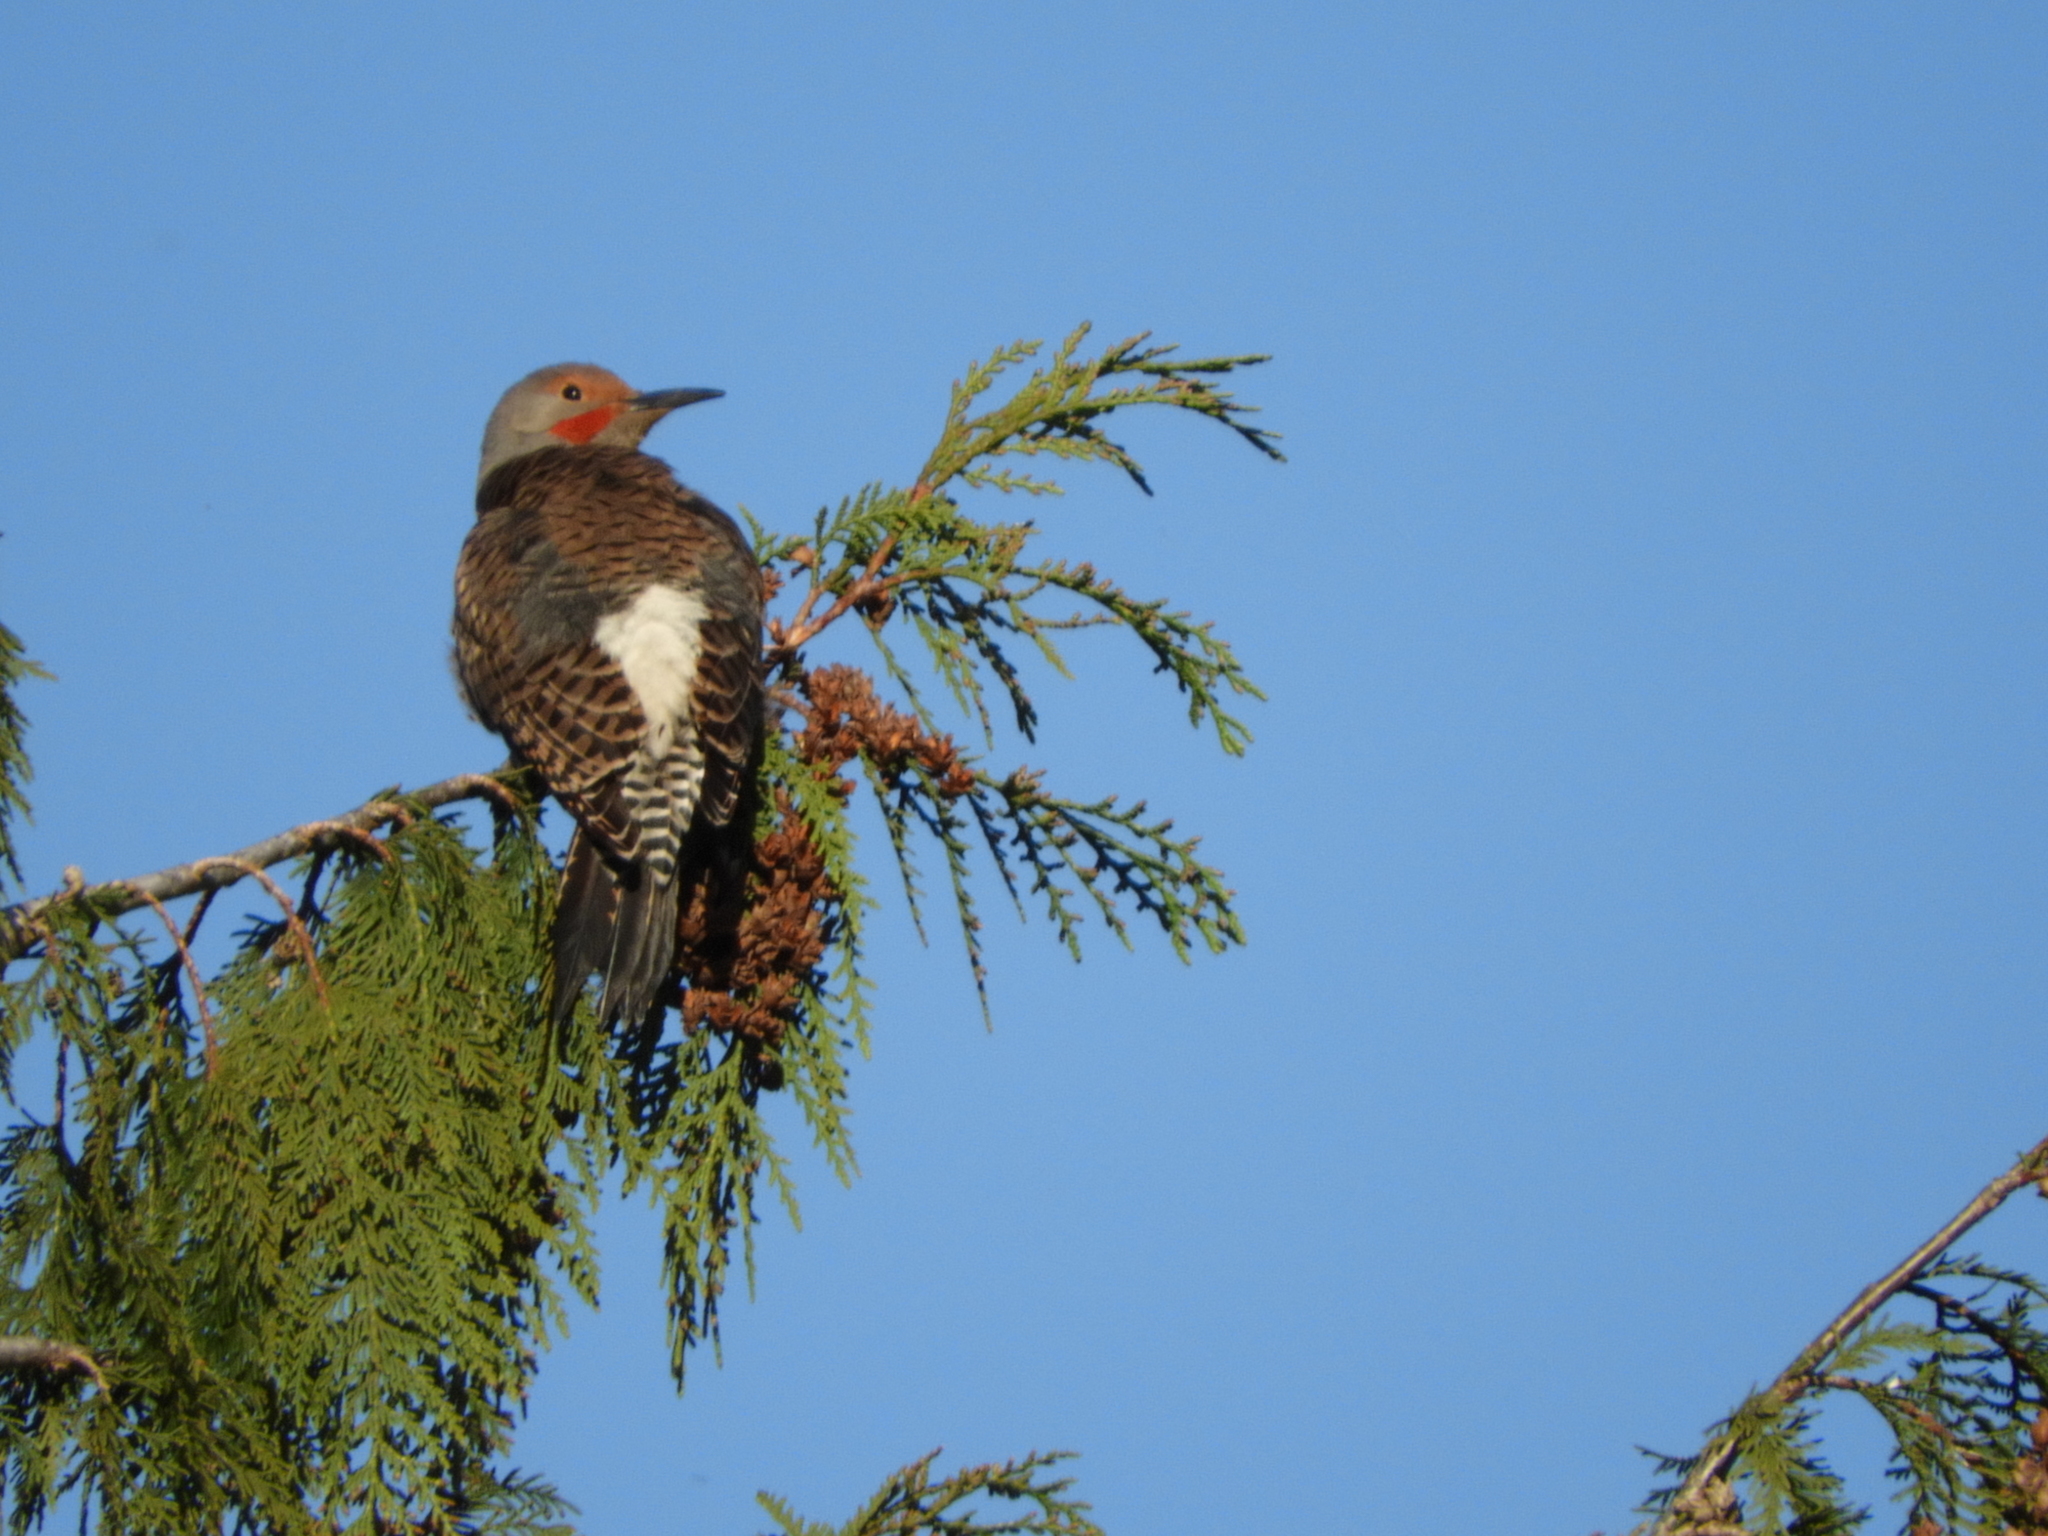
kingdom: Animalia
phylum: Chordata
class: Aves
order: Piciformes
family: Picidae
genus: Colaptes
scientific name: Colaptes auratus
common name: Northern flicker
